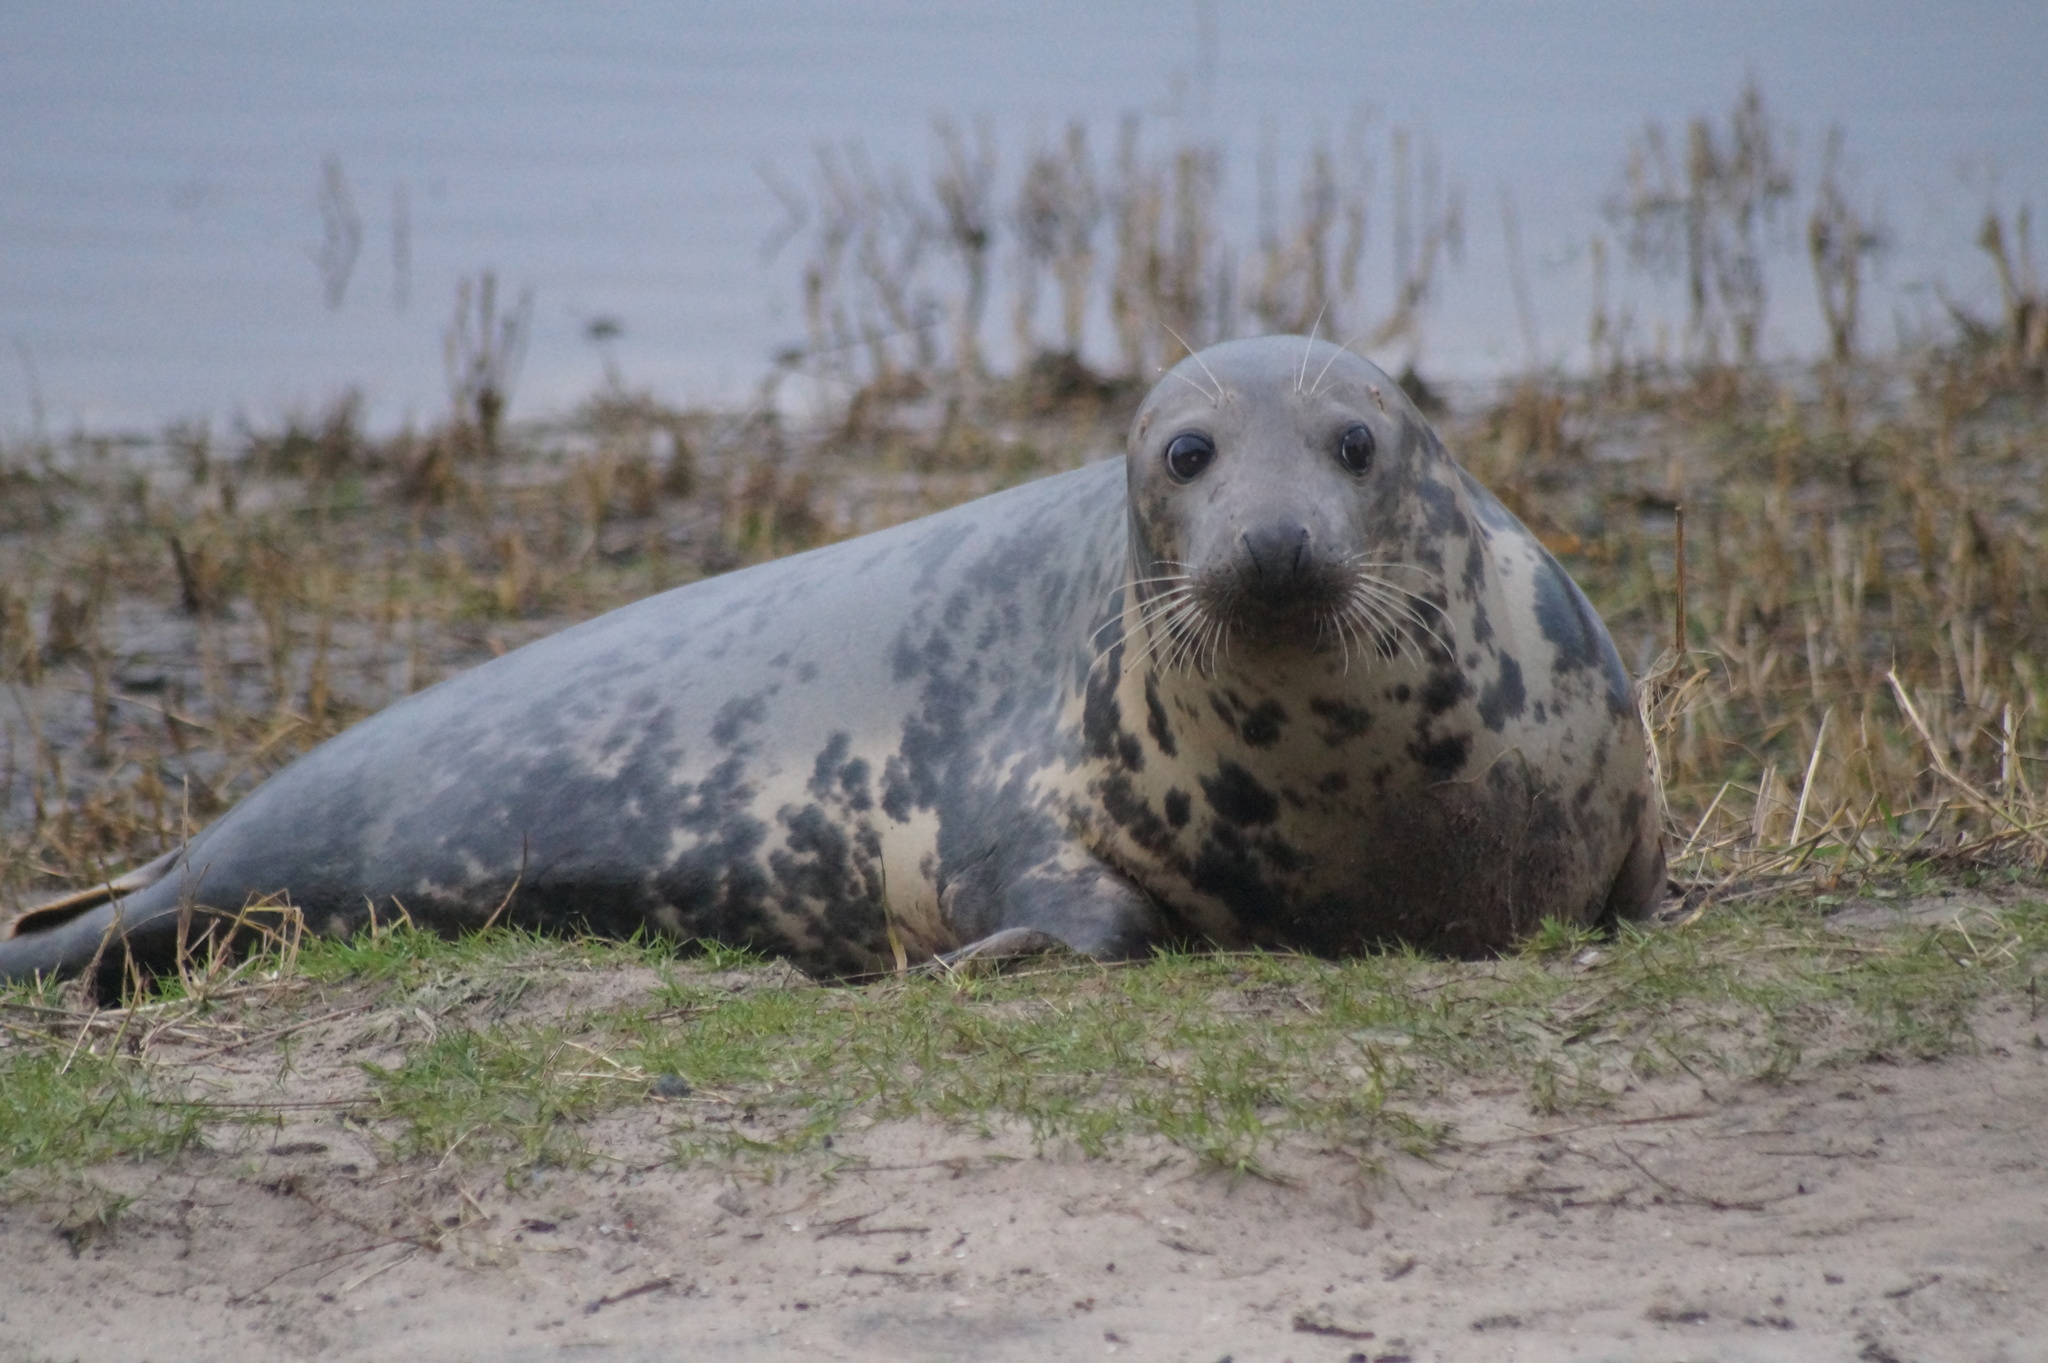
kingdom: Animalia
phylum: Chordata
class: Mammalia
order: Carnivora
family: Phocidae
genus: Halichoerus
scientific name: Halichoerus grypus
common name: Grey seal
